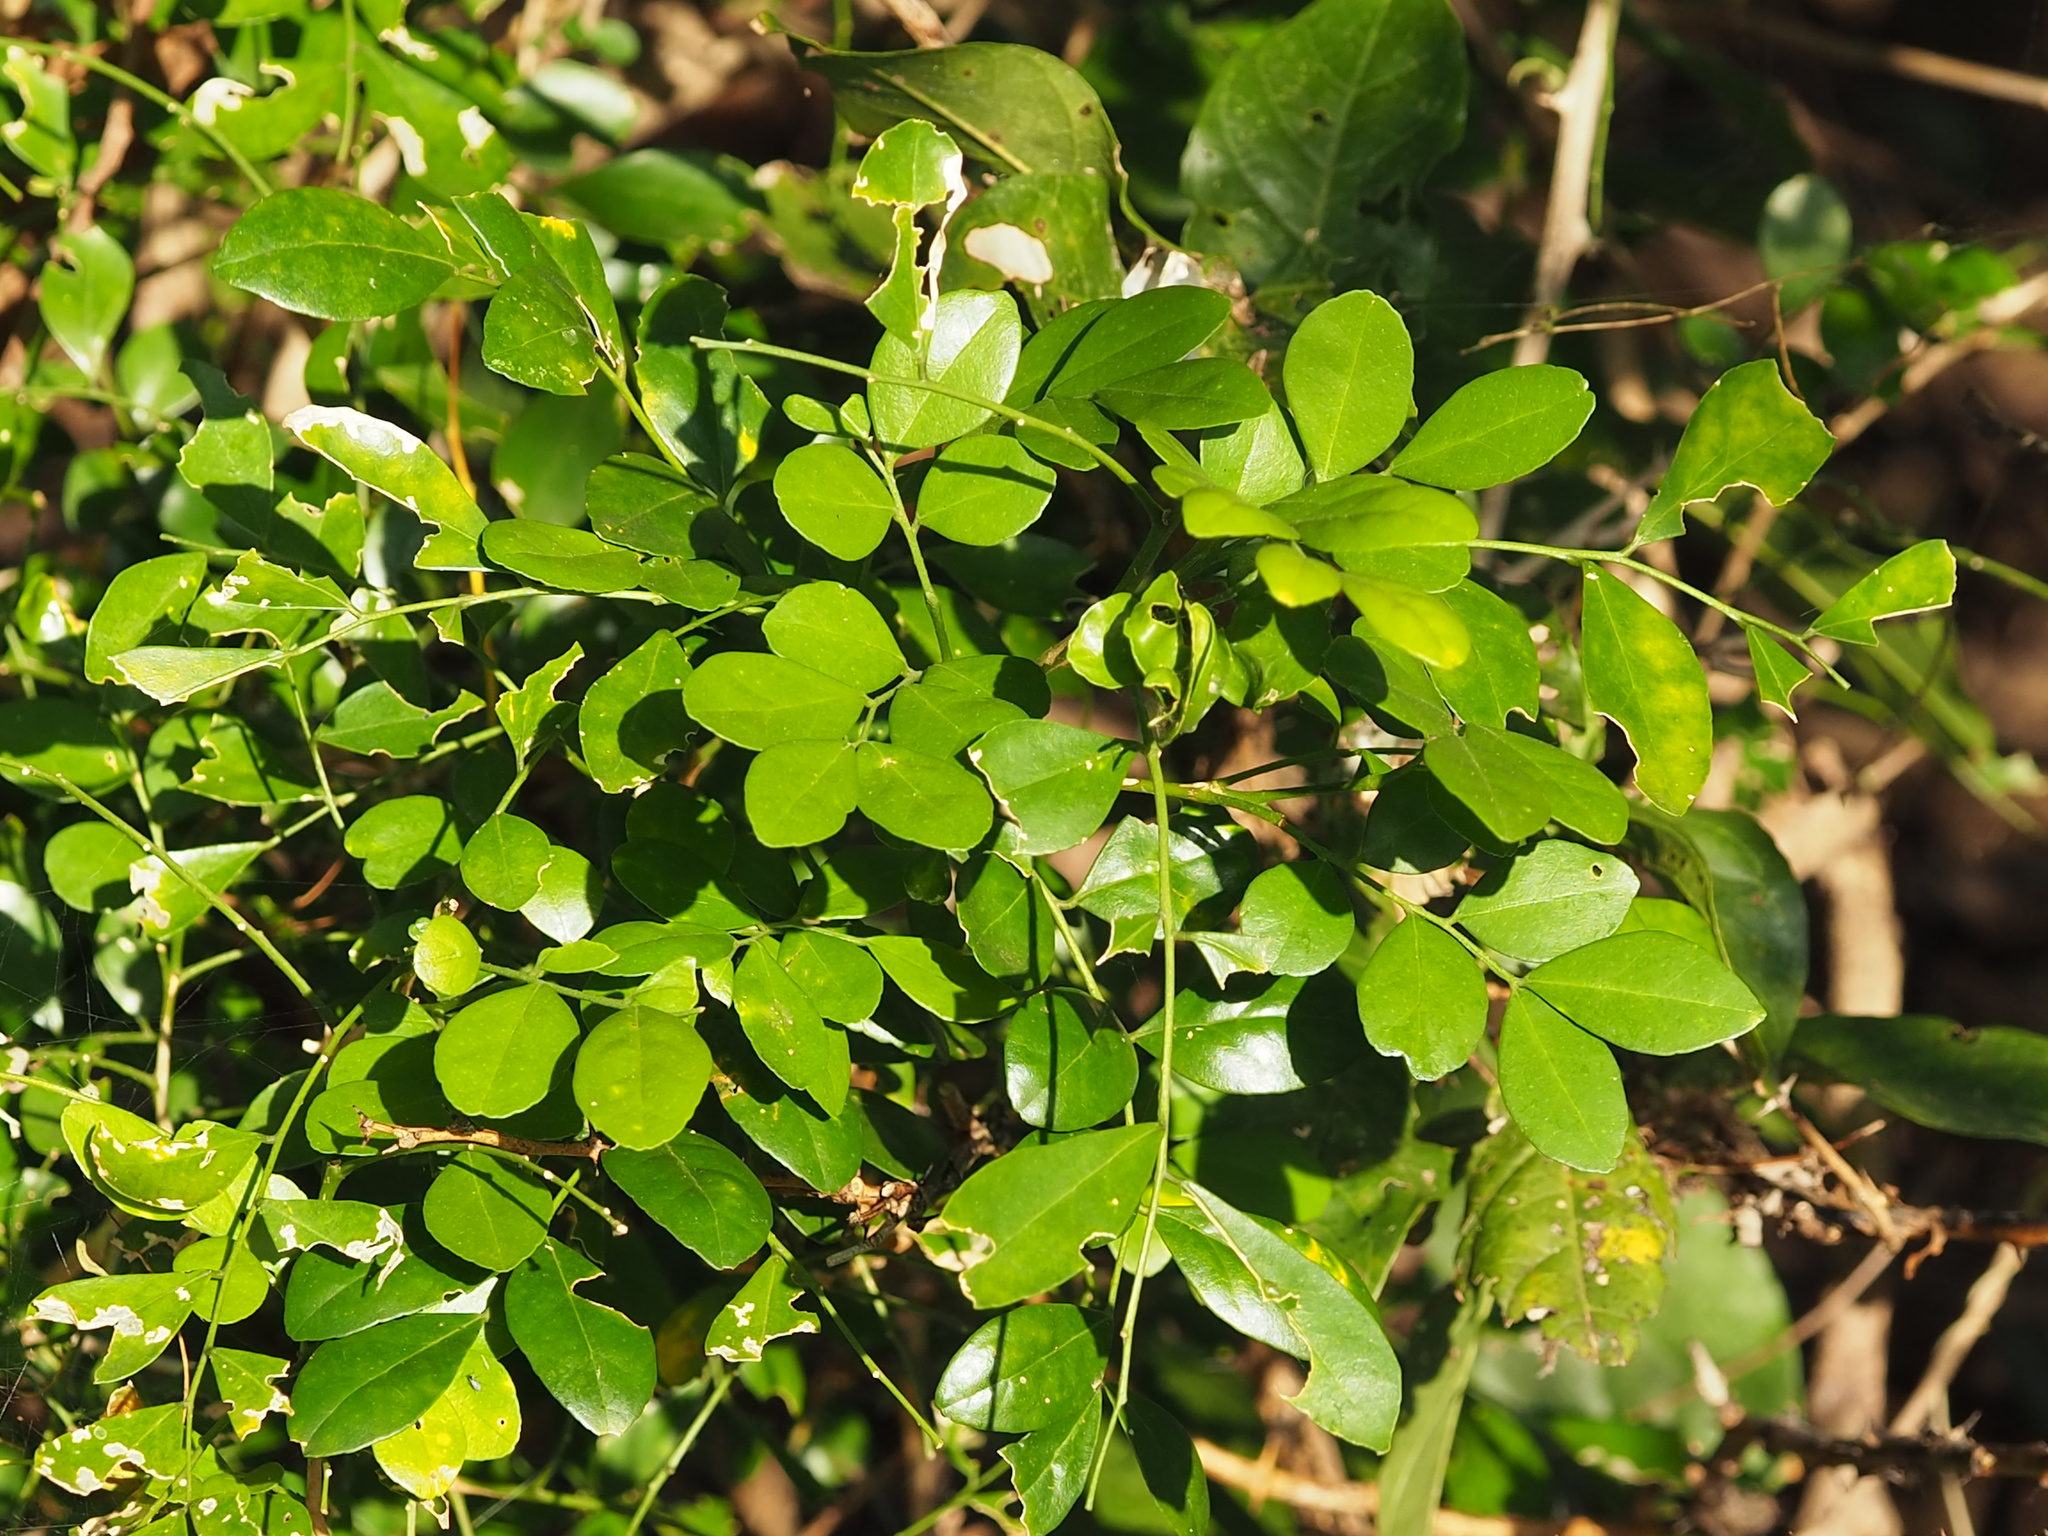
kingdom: Plantae
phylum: Tracheophyta
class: Magnoliopsida
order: Sapindales
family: Rutaceae
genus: Murraya
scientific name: Murraya paniculata
